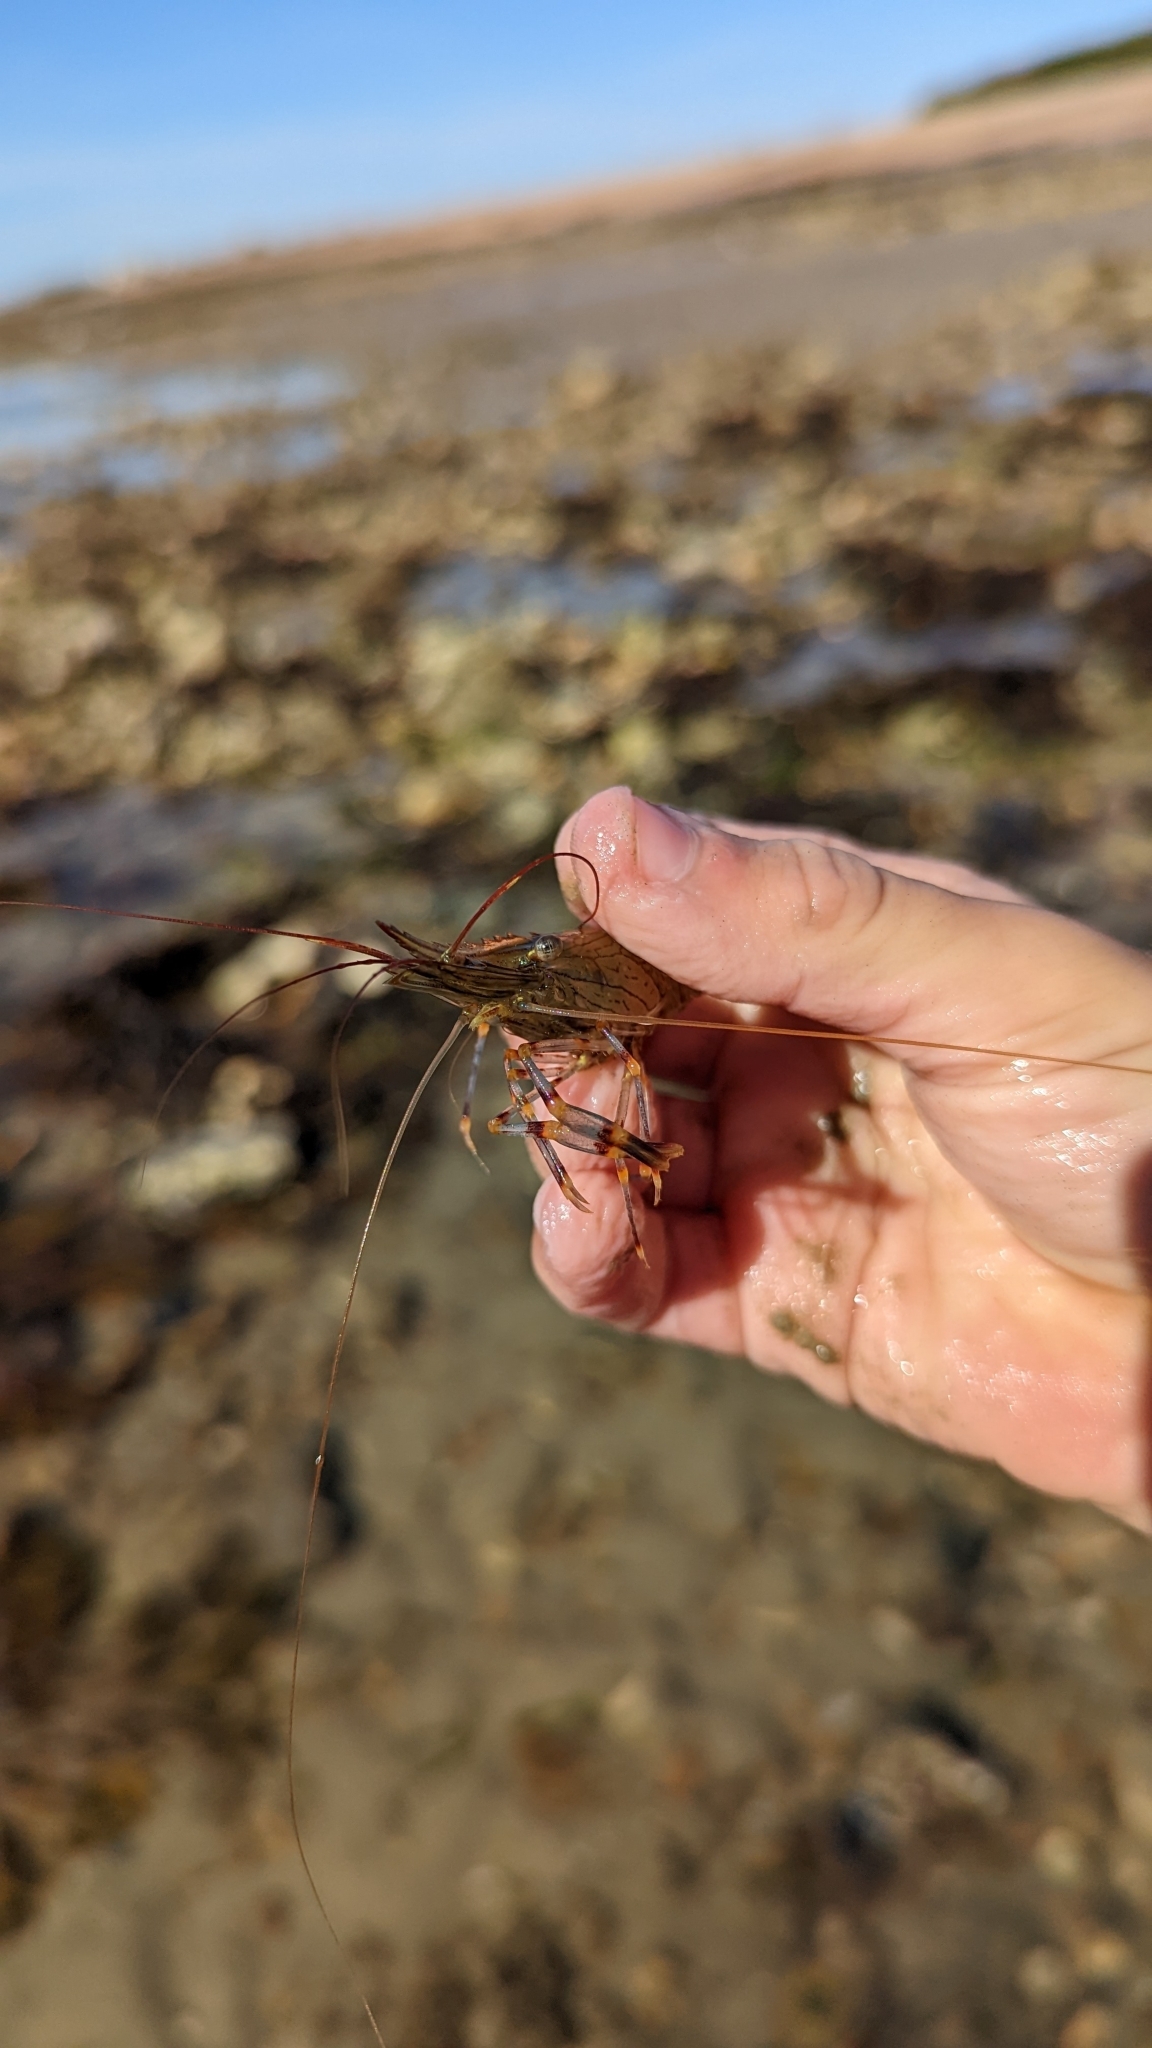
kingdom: Animalia
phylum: Arthropoda
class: Malacostraca
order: Decapoda
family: Palaemonidae
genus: Palaemon
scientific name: Palaemon serratus
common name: Common prawn
